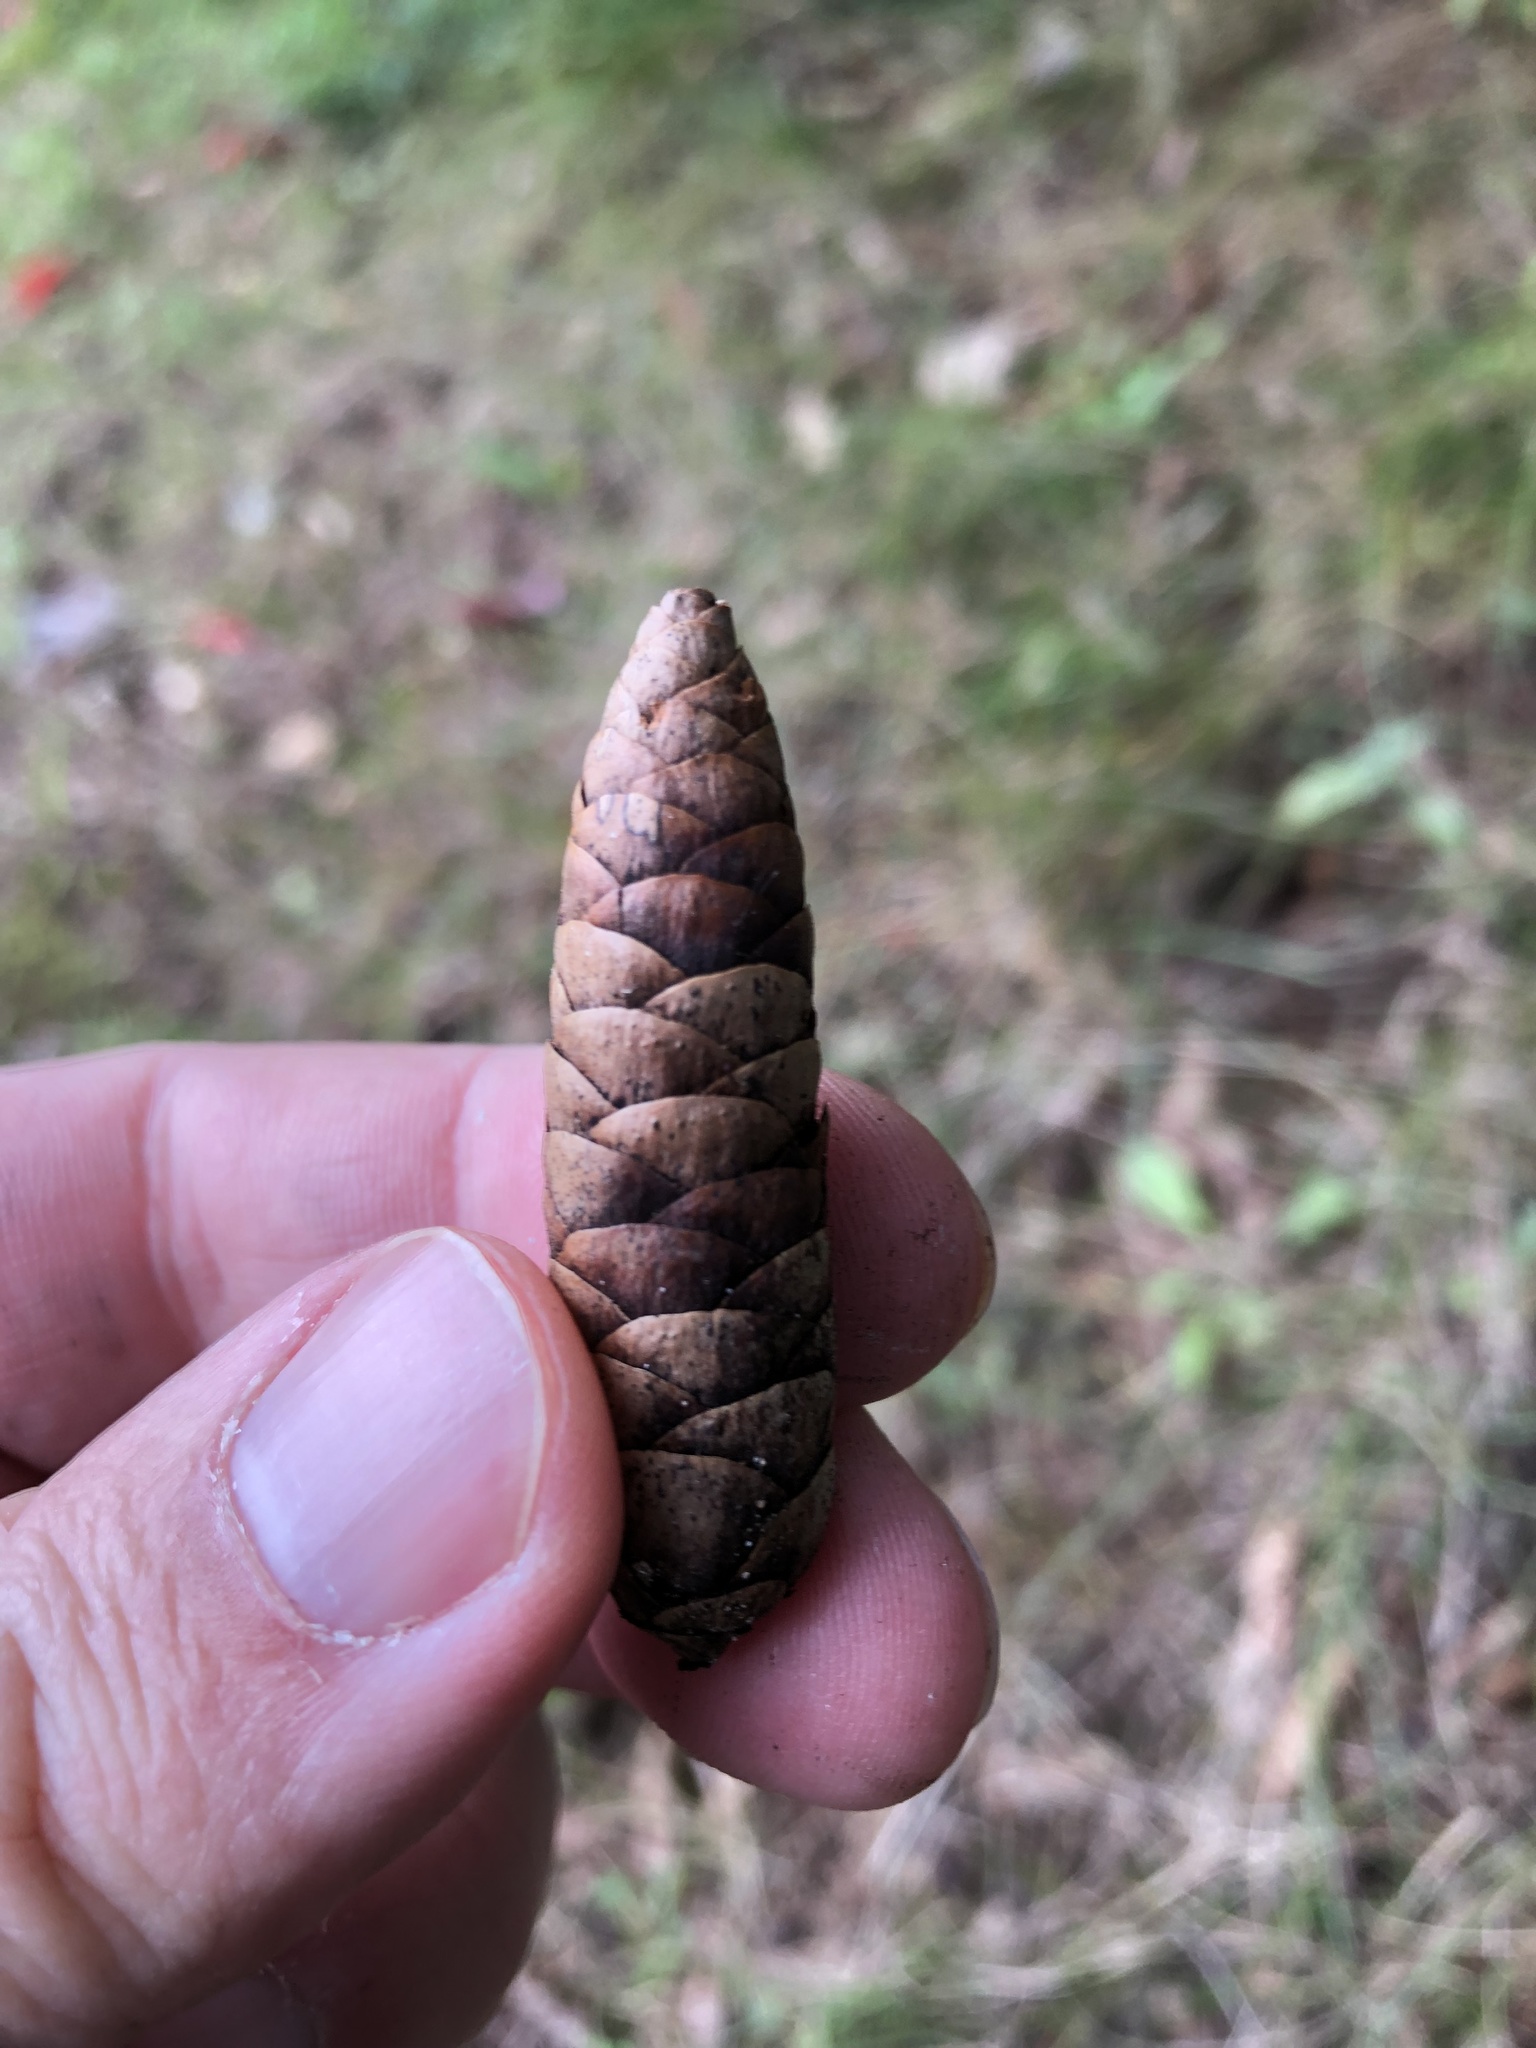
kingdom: Plantae
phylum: Tracheophyta
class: Pinopsida
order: Pinales
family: Pinaceae
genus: Picea
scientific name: Picea glauca
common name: White spruce
